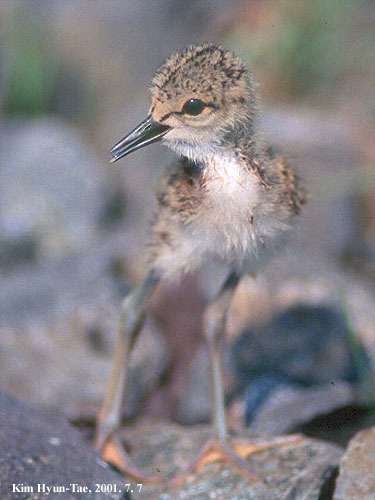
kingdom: Animalia
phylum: Chordata
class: Aves
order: Charadriiformes
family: Recurvirostridae
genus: Himantopus
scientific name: Himantopus himantopus
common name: Black-winged stilt
